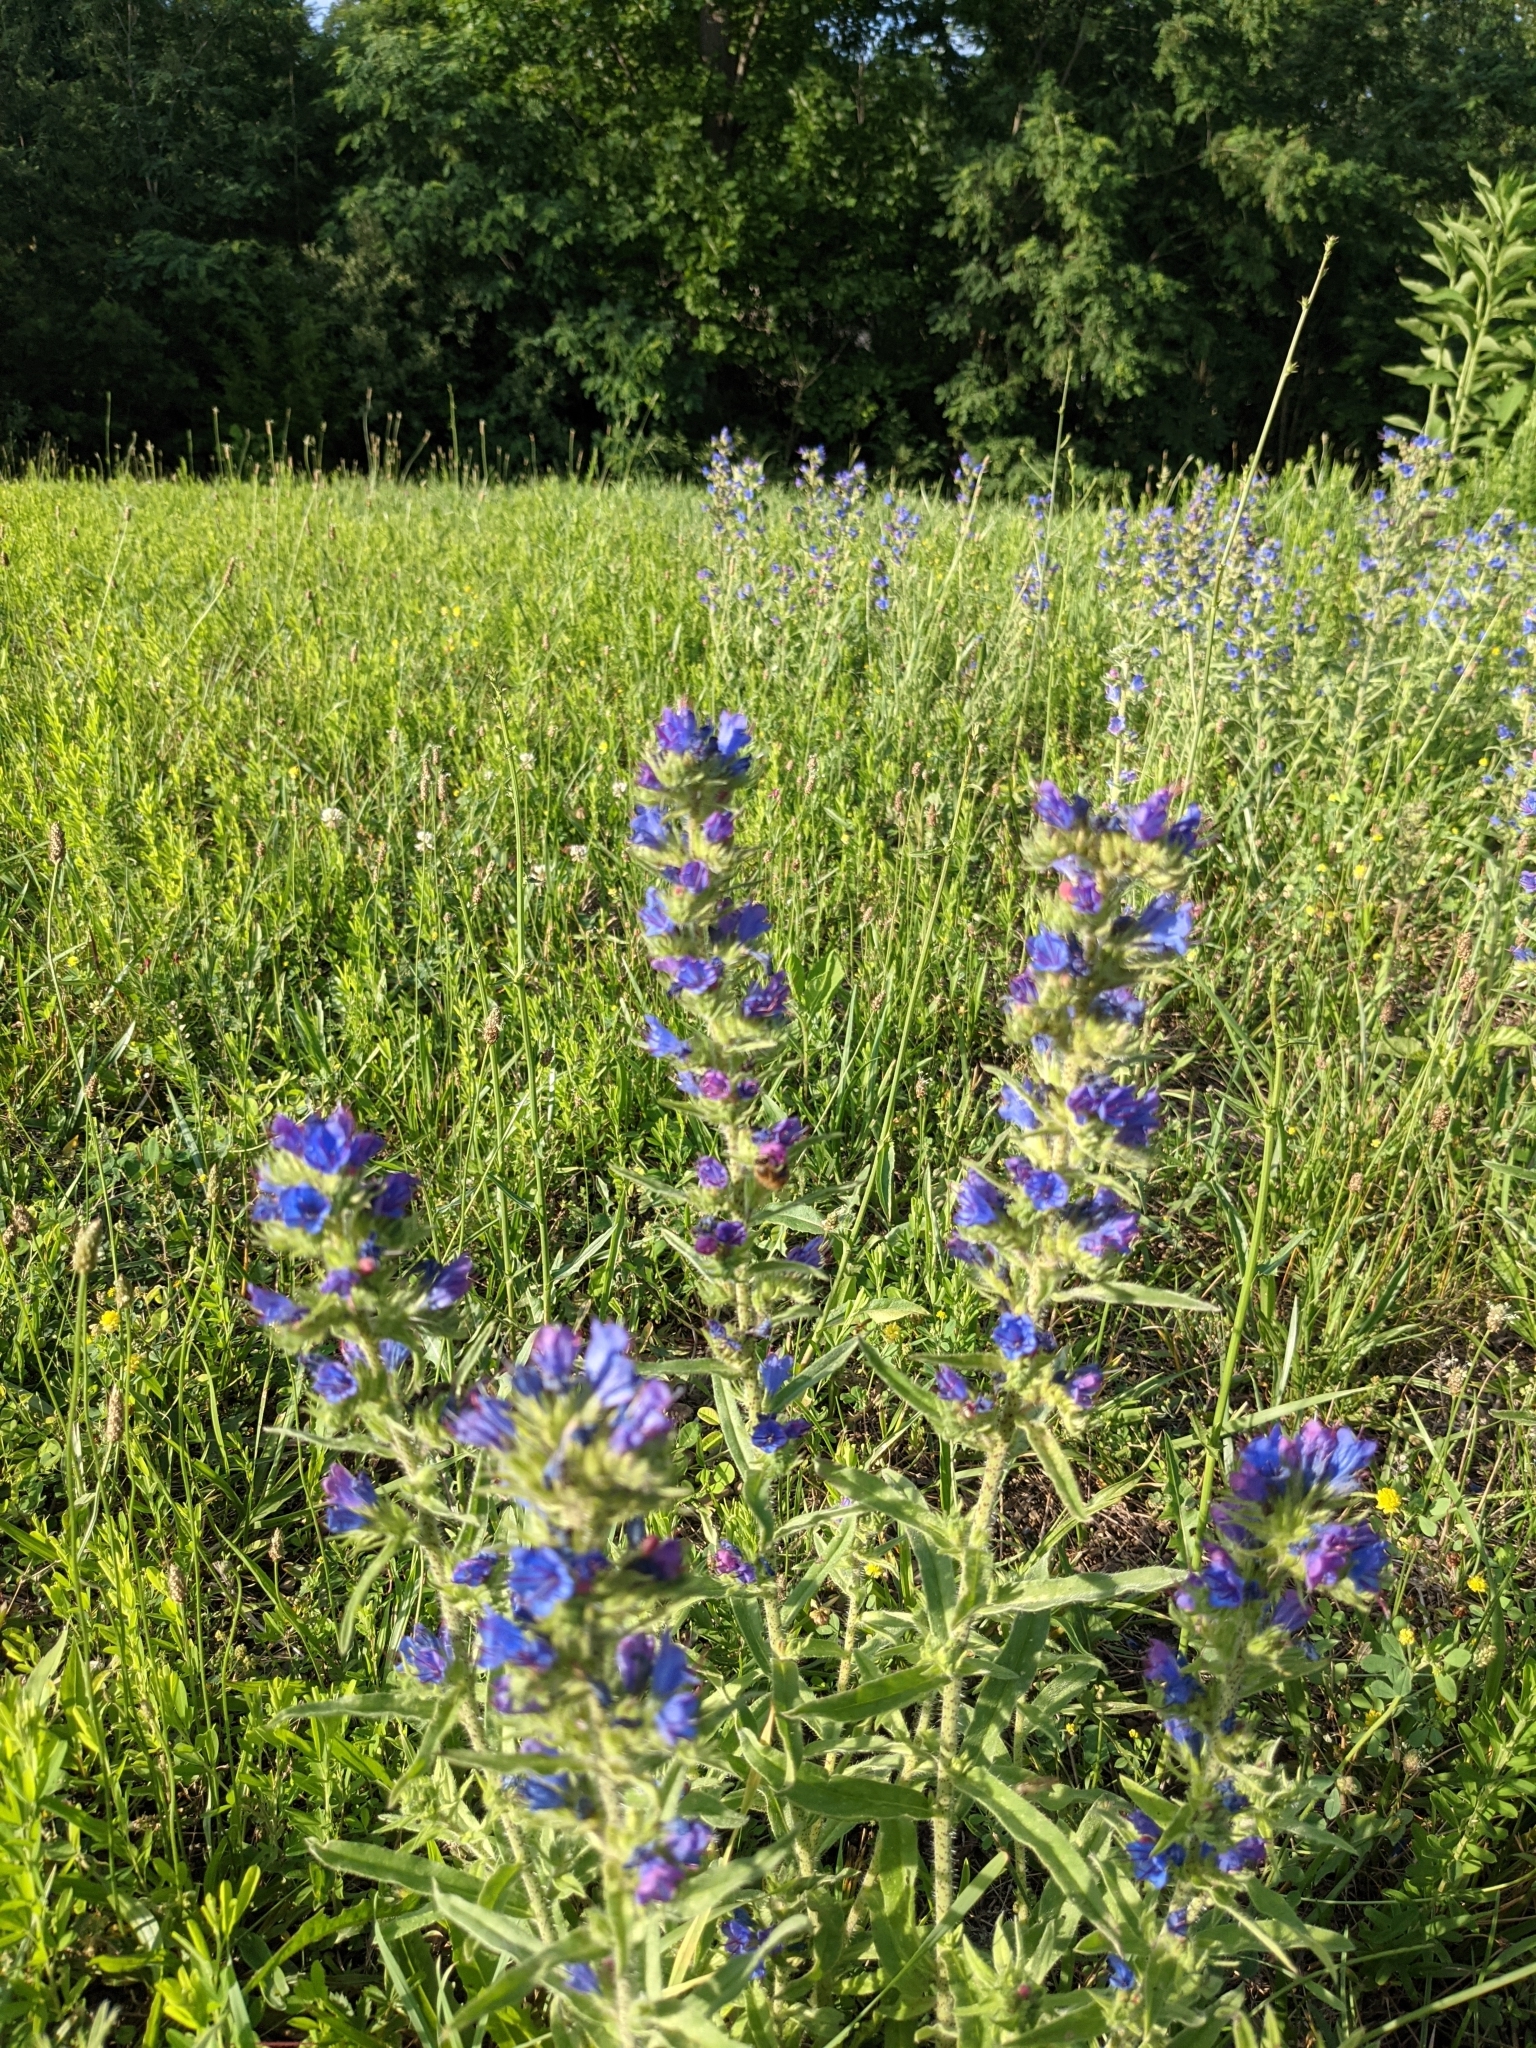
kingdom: Plantae
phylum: Tracheophyta
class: Magnoliopsida
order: Boraginales
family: Boraginaceae
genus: Echium
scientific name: Echium vulgare
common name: Common viper's bugloss
